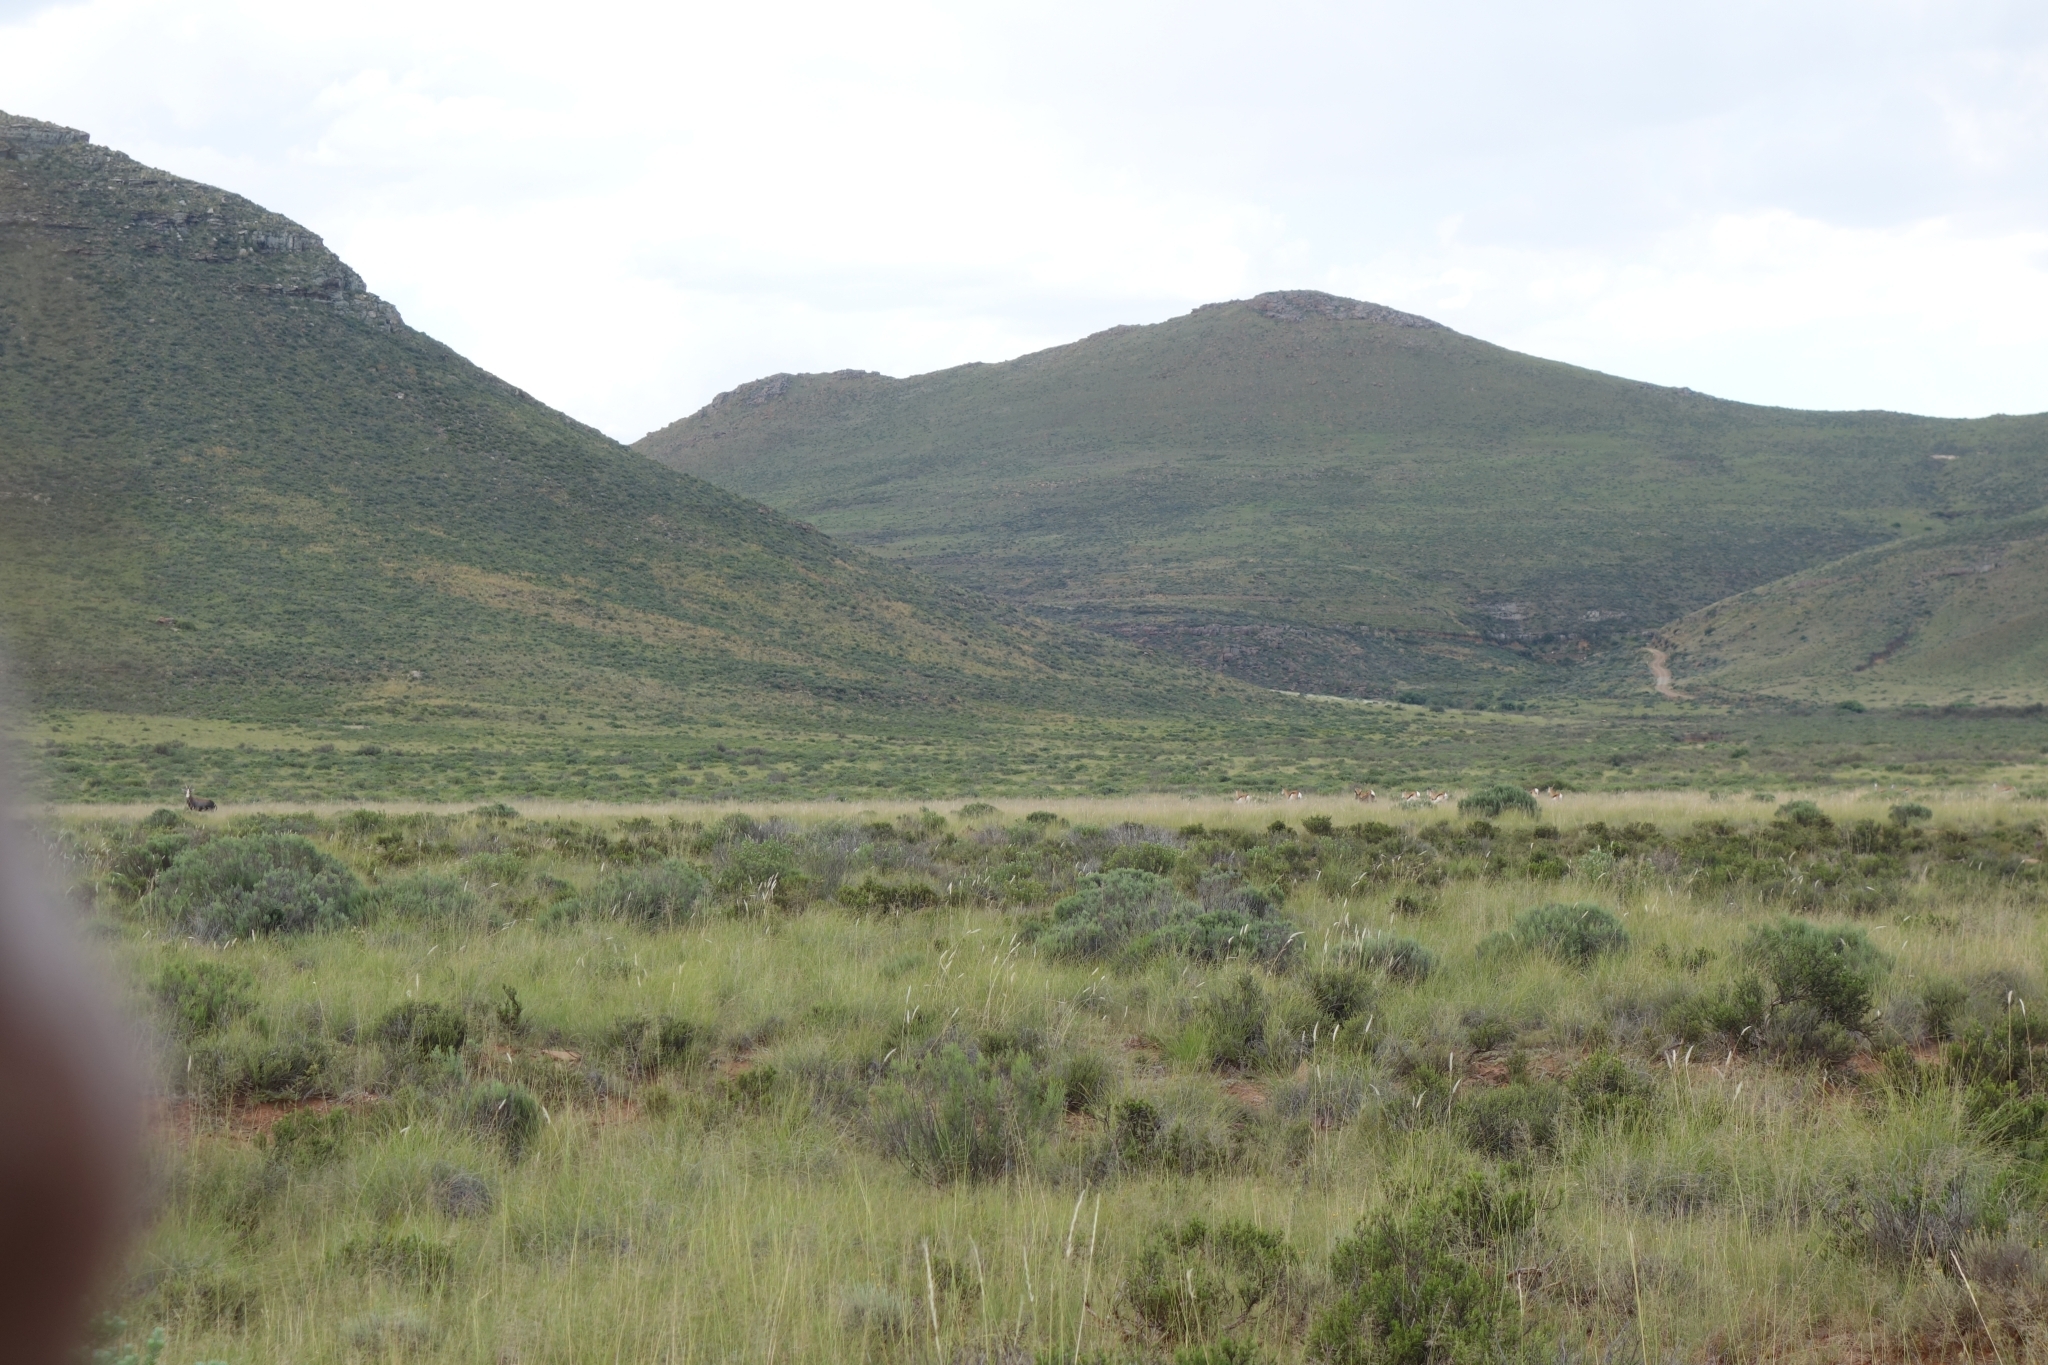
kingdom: Animalia
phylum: Chordata
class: Mammalia
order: Artiodactyla
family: Bovidae
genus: Antidorcas
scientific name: Antidorcas marsupialis
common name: Springbok
